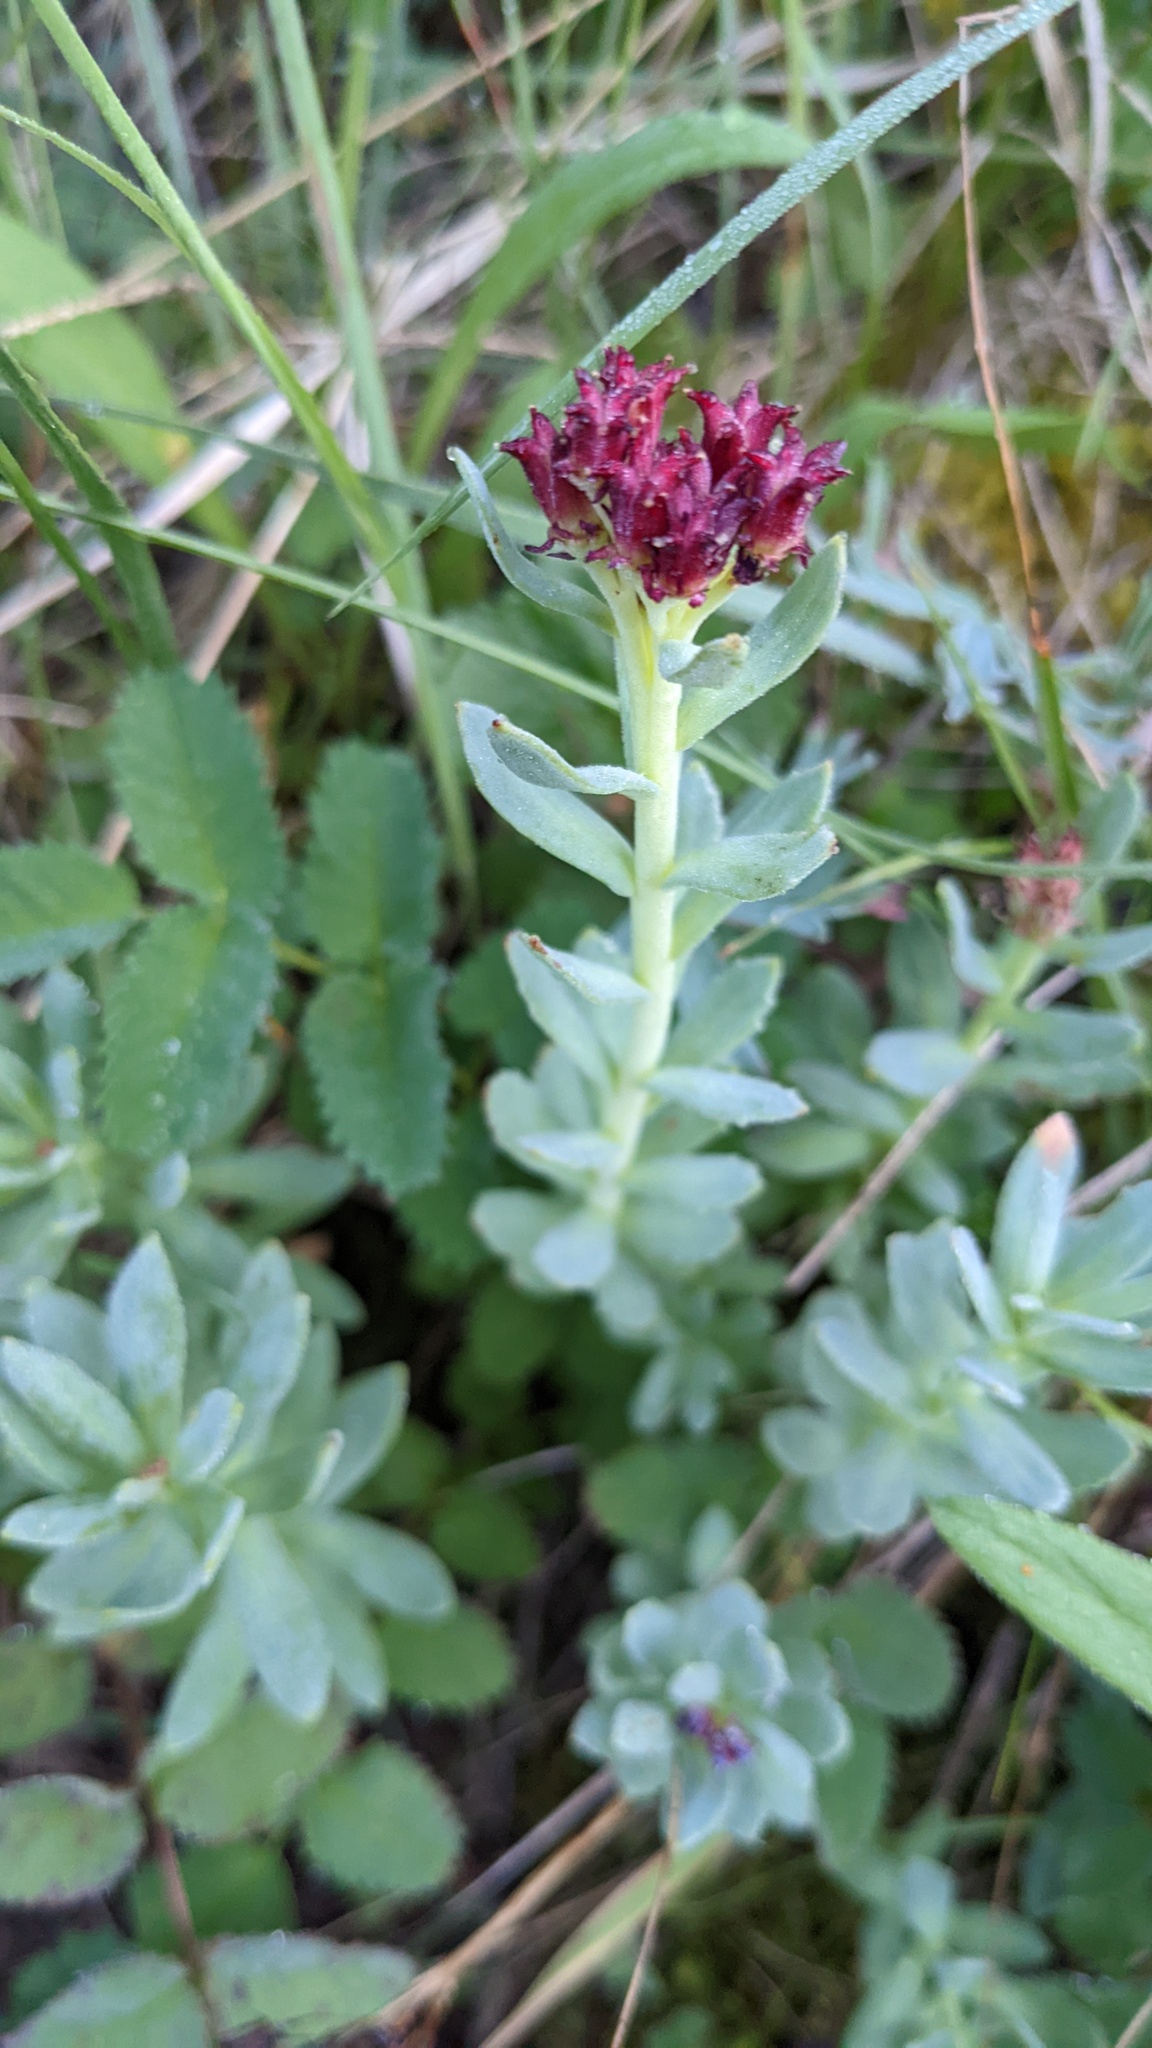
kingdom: Plantae
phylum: Tracheophyta
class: Magnoliopsida
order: Saxifragales
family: Crassulaceae
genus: Rhodiola
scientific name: Rhodiola integrifolia
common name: Western roseroot
